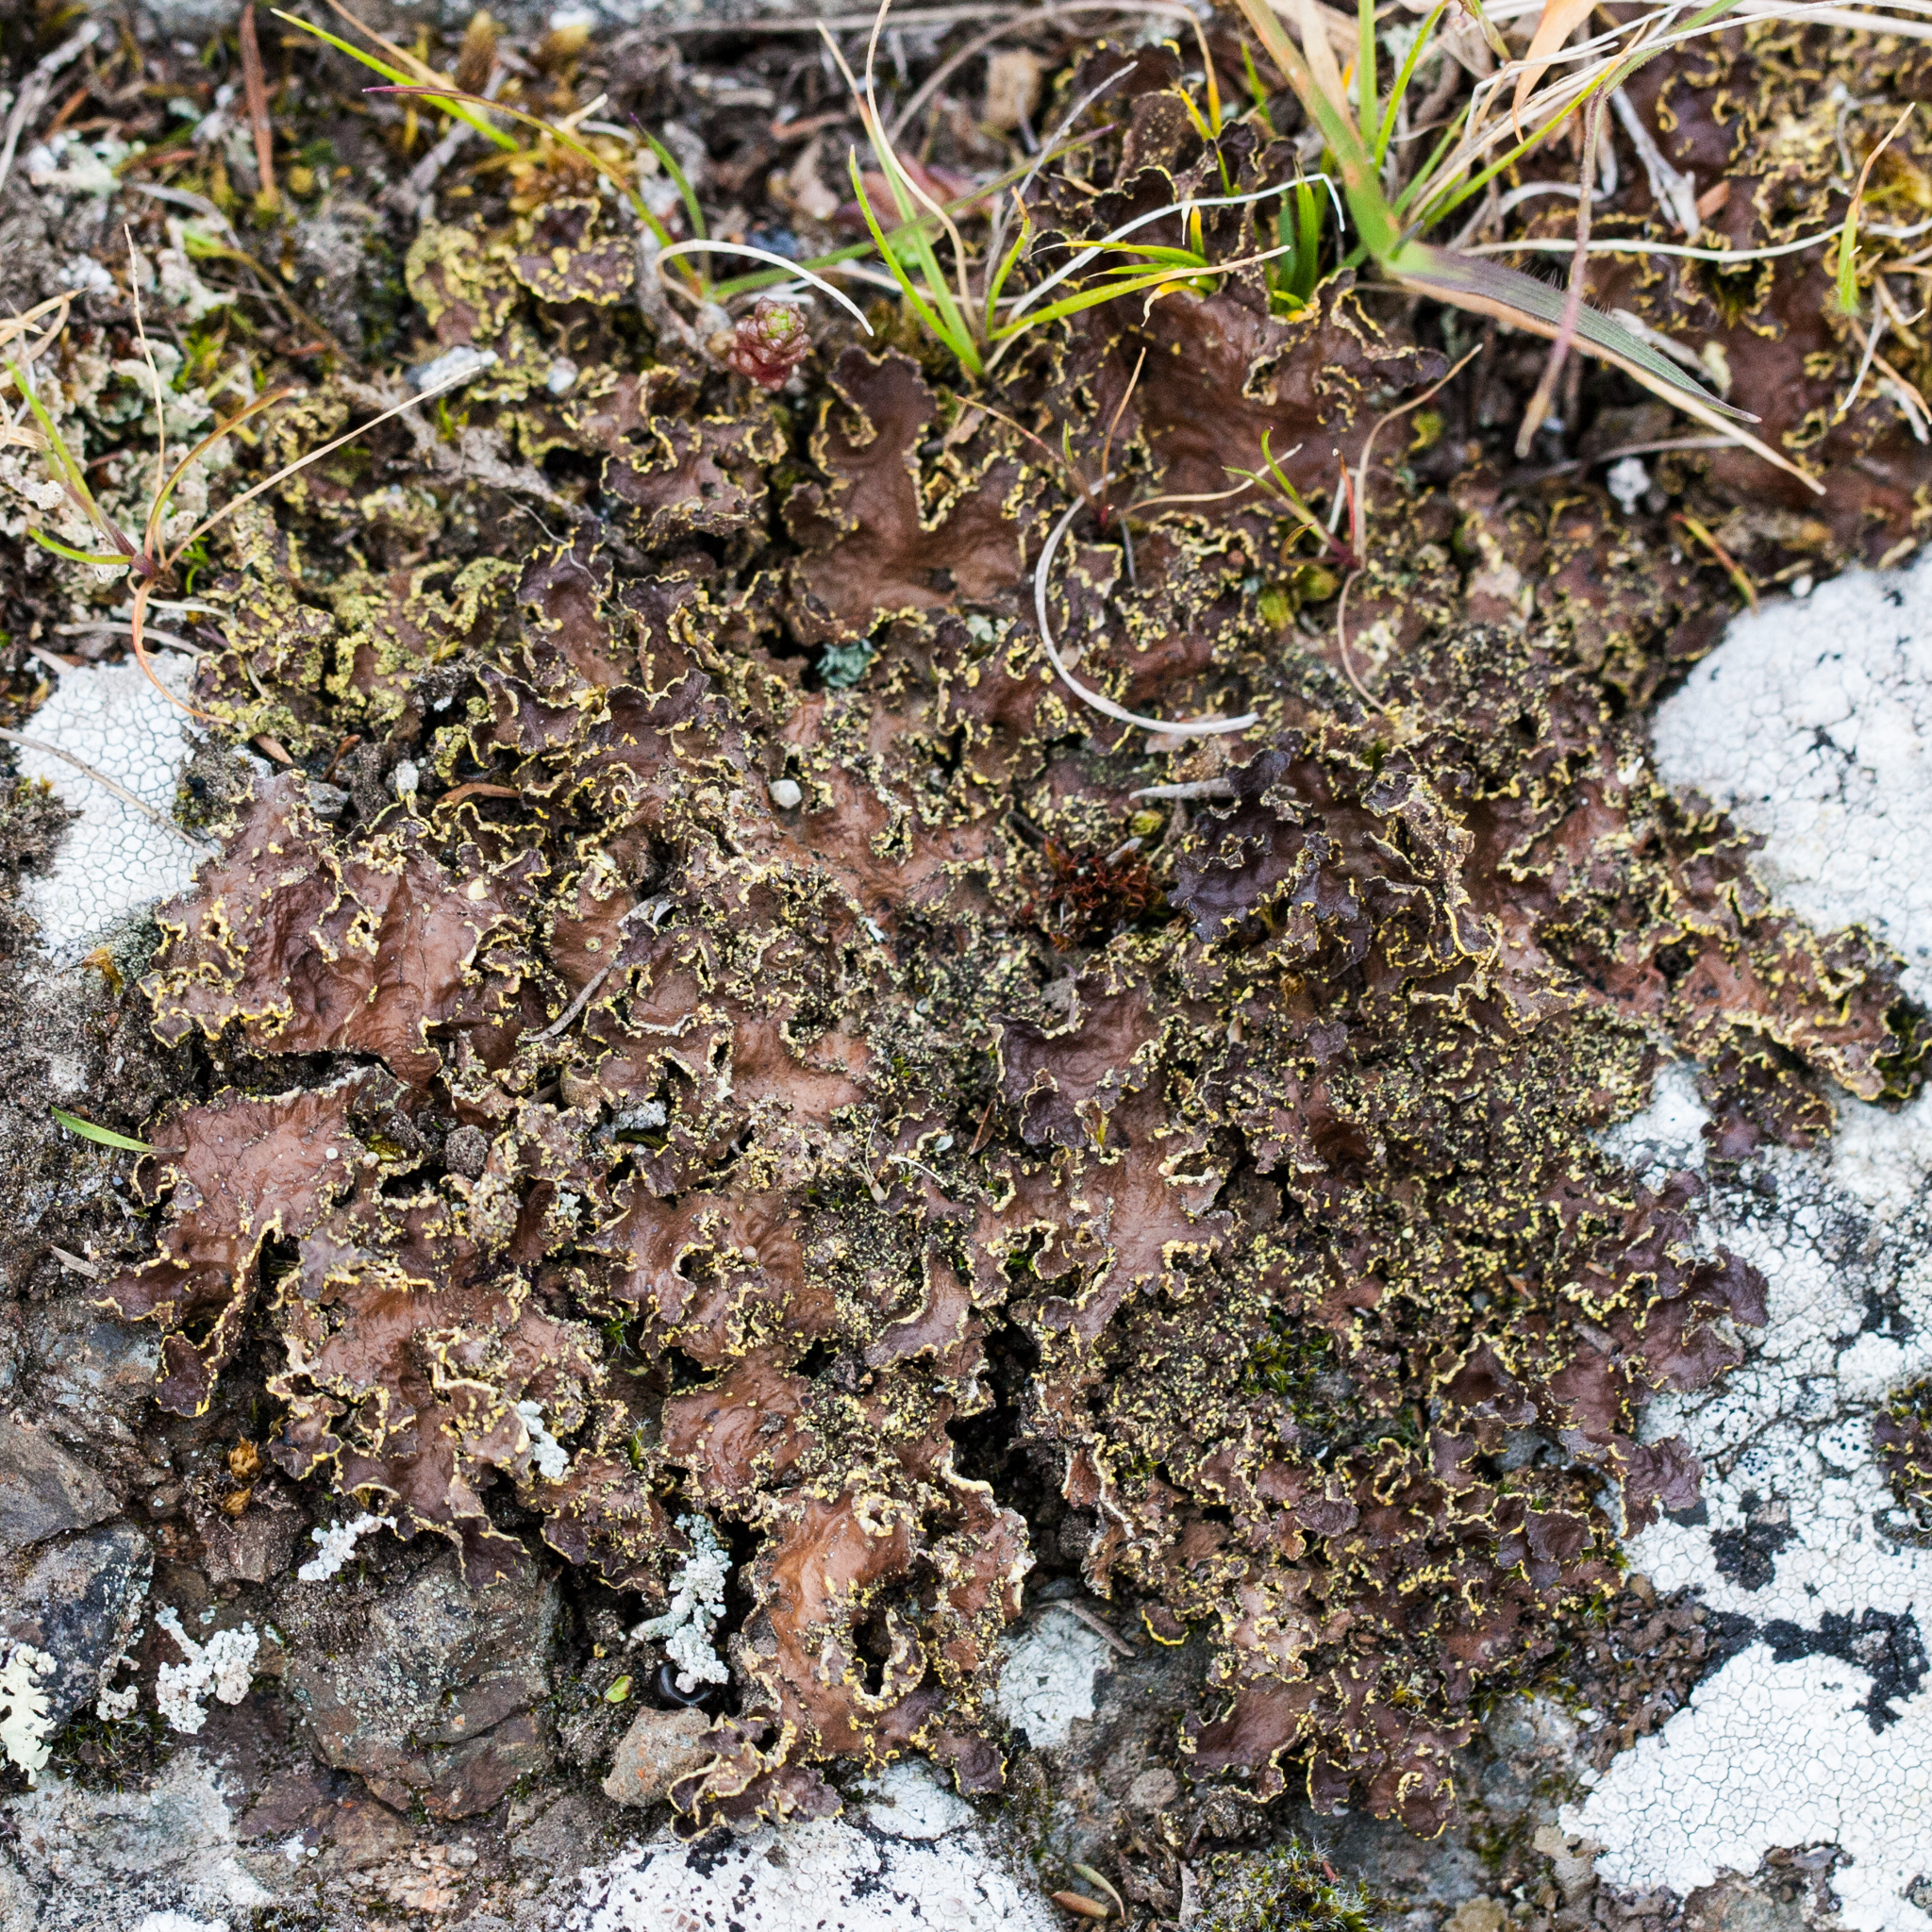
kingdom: Fungi
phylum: Ascomycota
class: Lecanoromycetes
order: Peltigerales
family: Lobariaceae
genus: Pseudocyphellaria
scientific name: Pseudocyphellaria crocata
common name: Golden specklebelly
